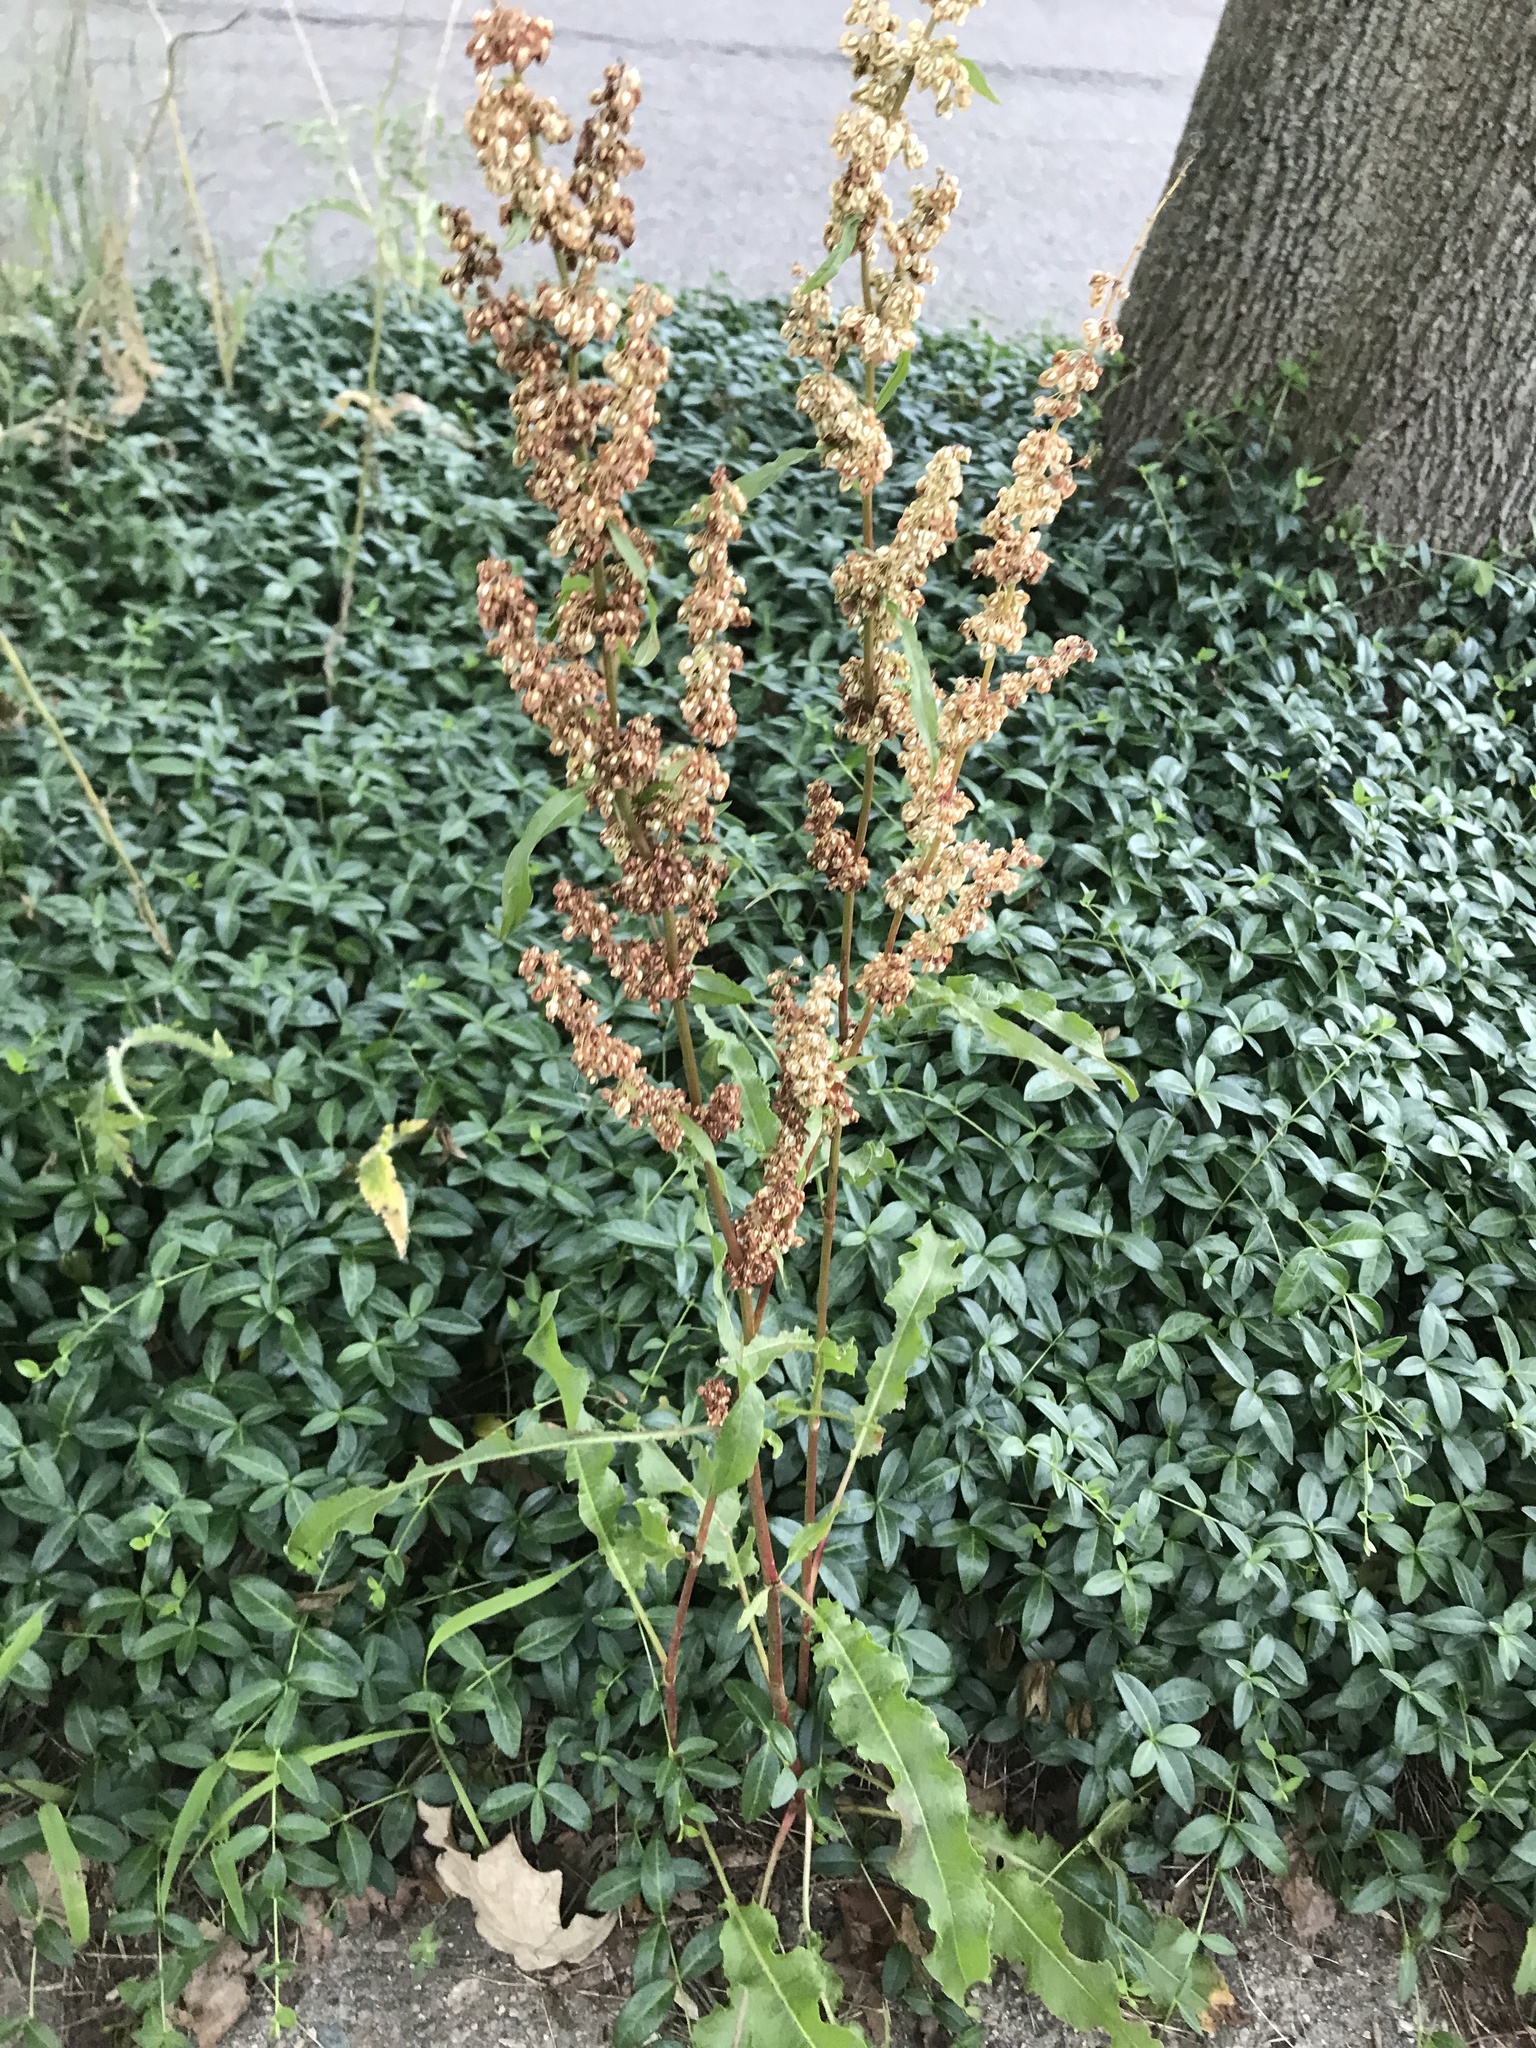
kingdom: Plantae
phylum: Tracheophyta
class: Magnoliopsida
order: Caryophyllales
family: Polygonaceae
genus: Rumex
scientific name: Rumex crispus
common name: Curled dock
